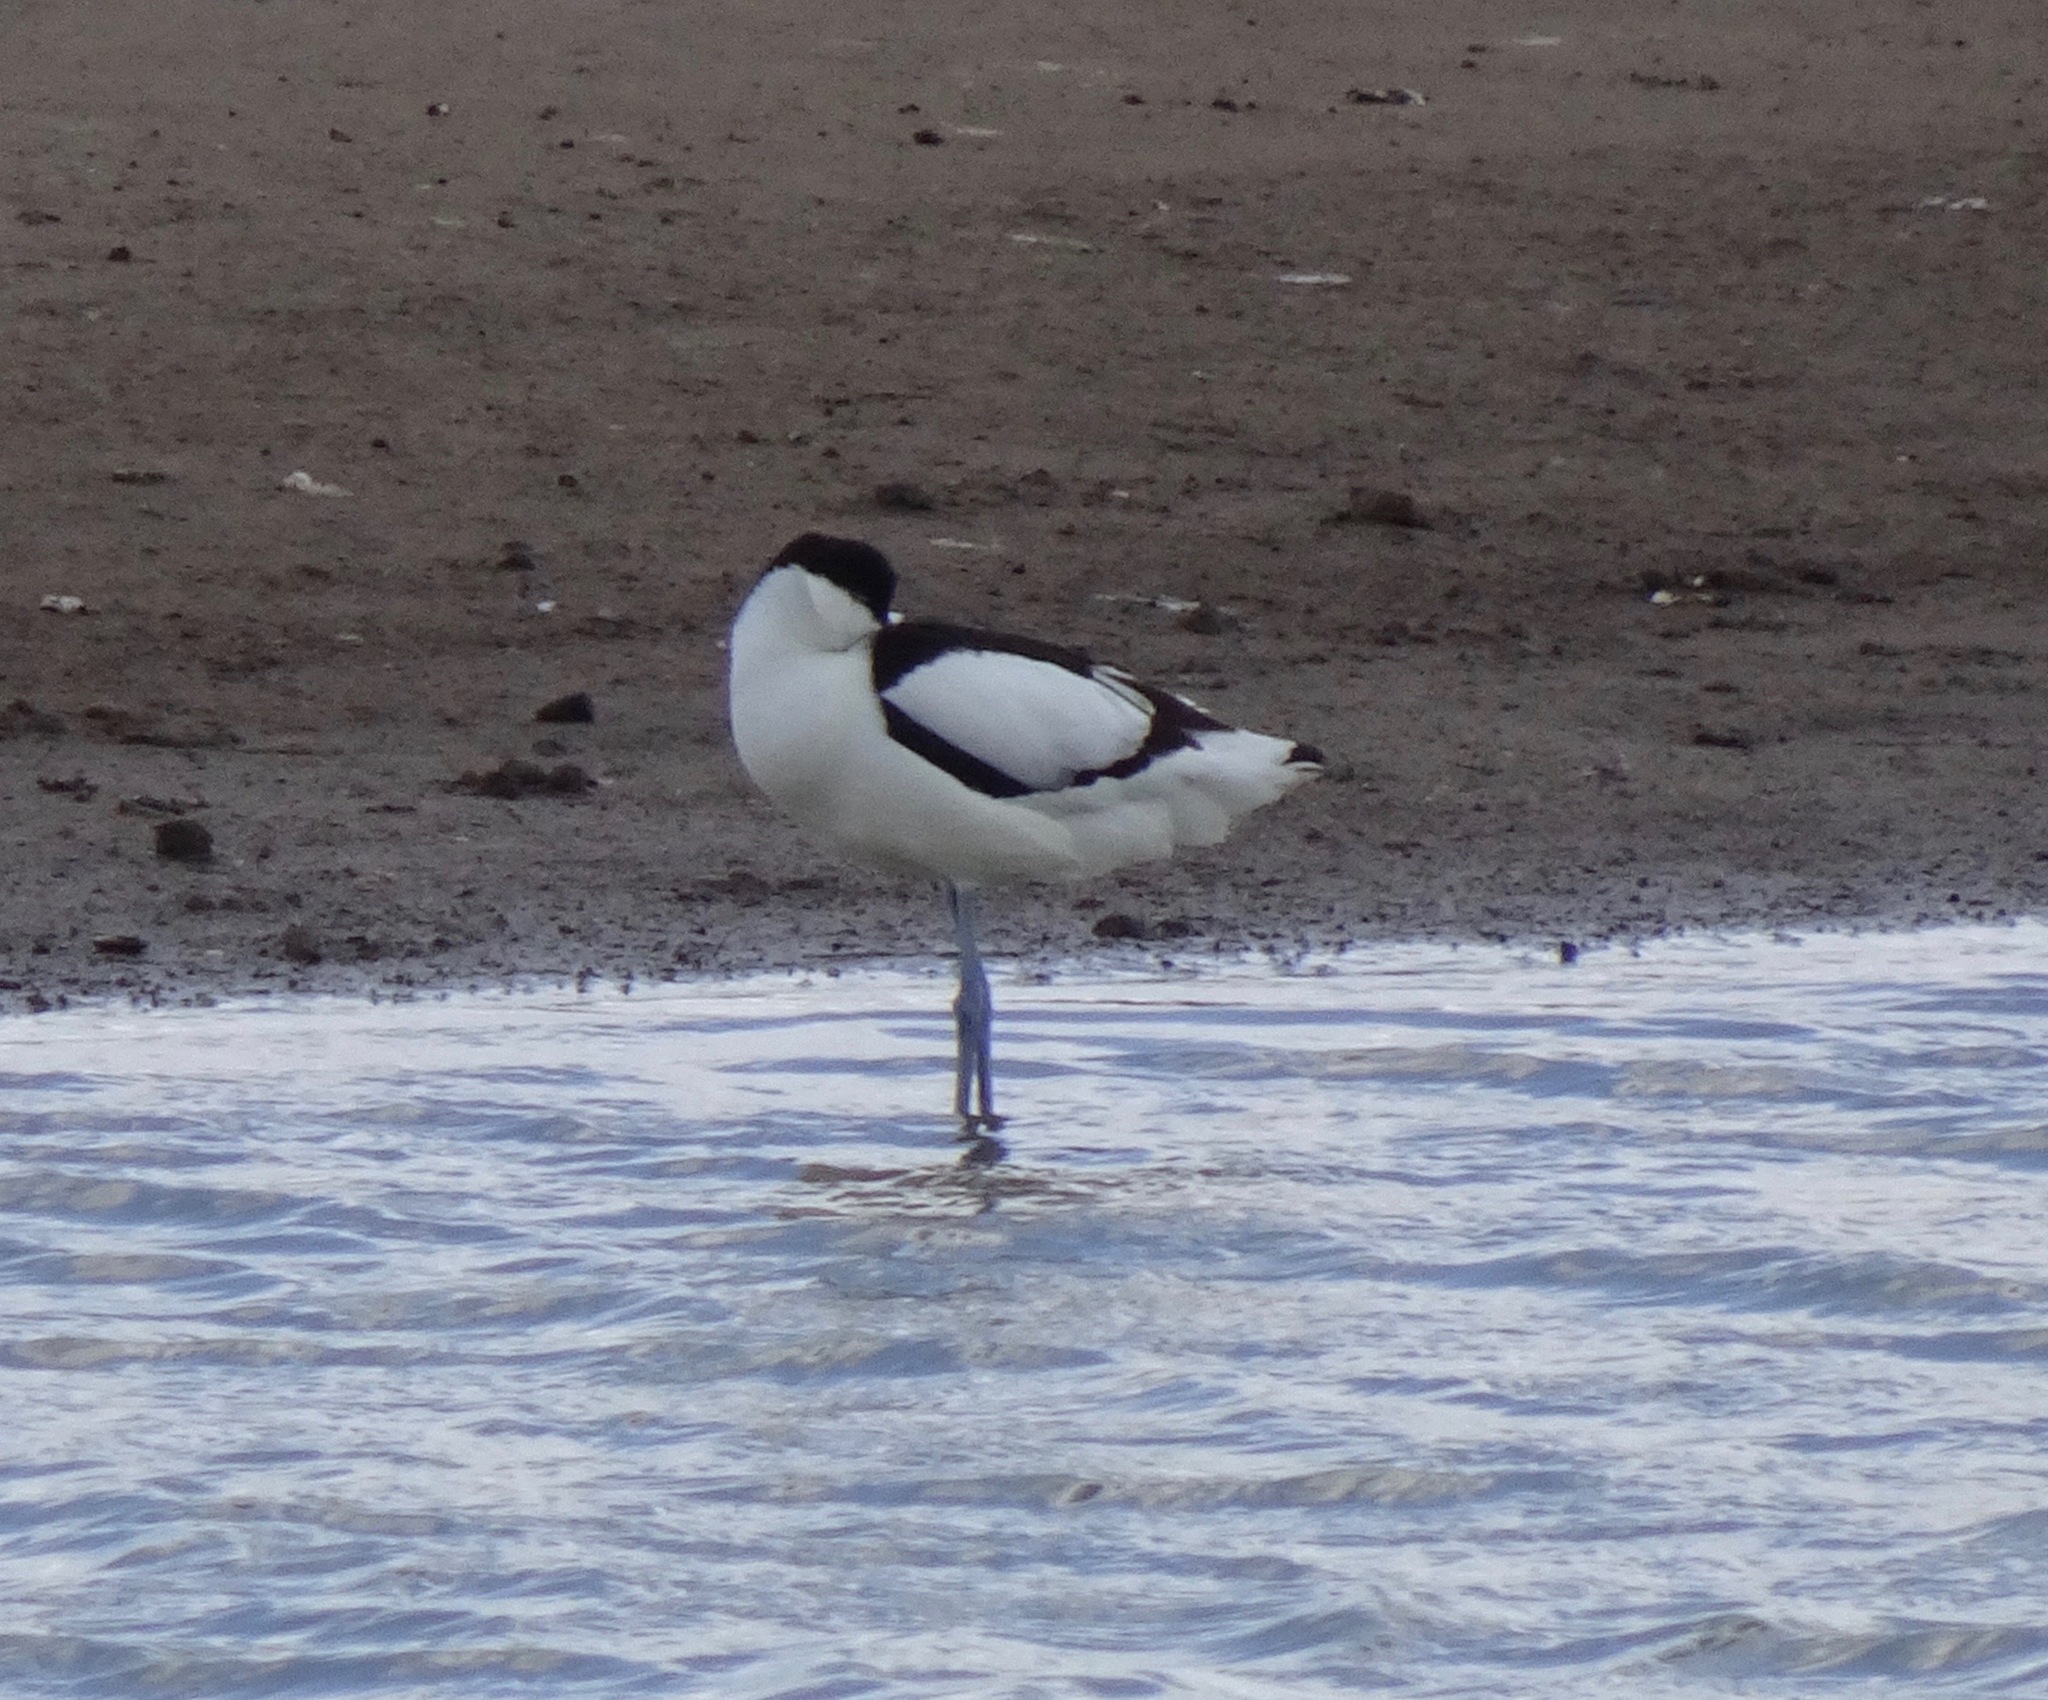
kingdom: Animalia
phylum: Chordata
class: Aves
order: Charadriiformes
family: Recurvirostridae
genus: Recurvirostra
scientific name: Recurvirostra avosetta
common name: Pied avocet
